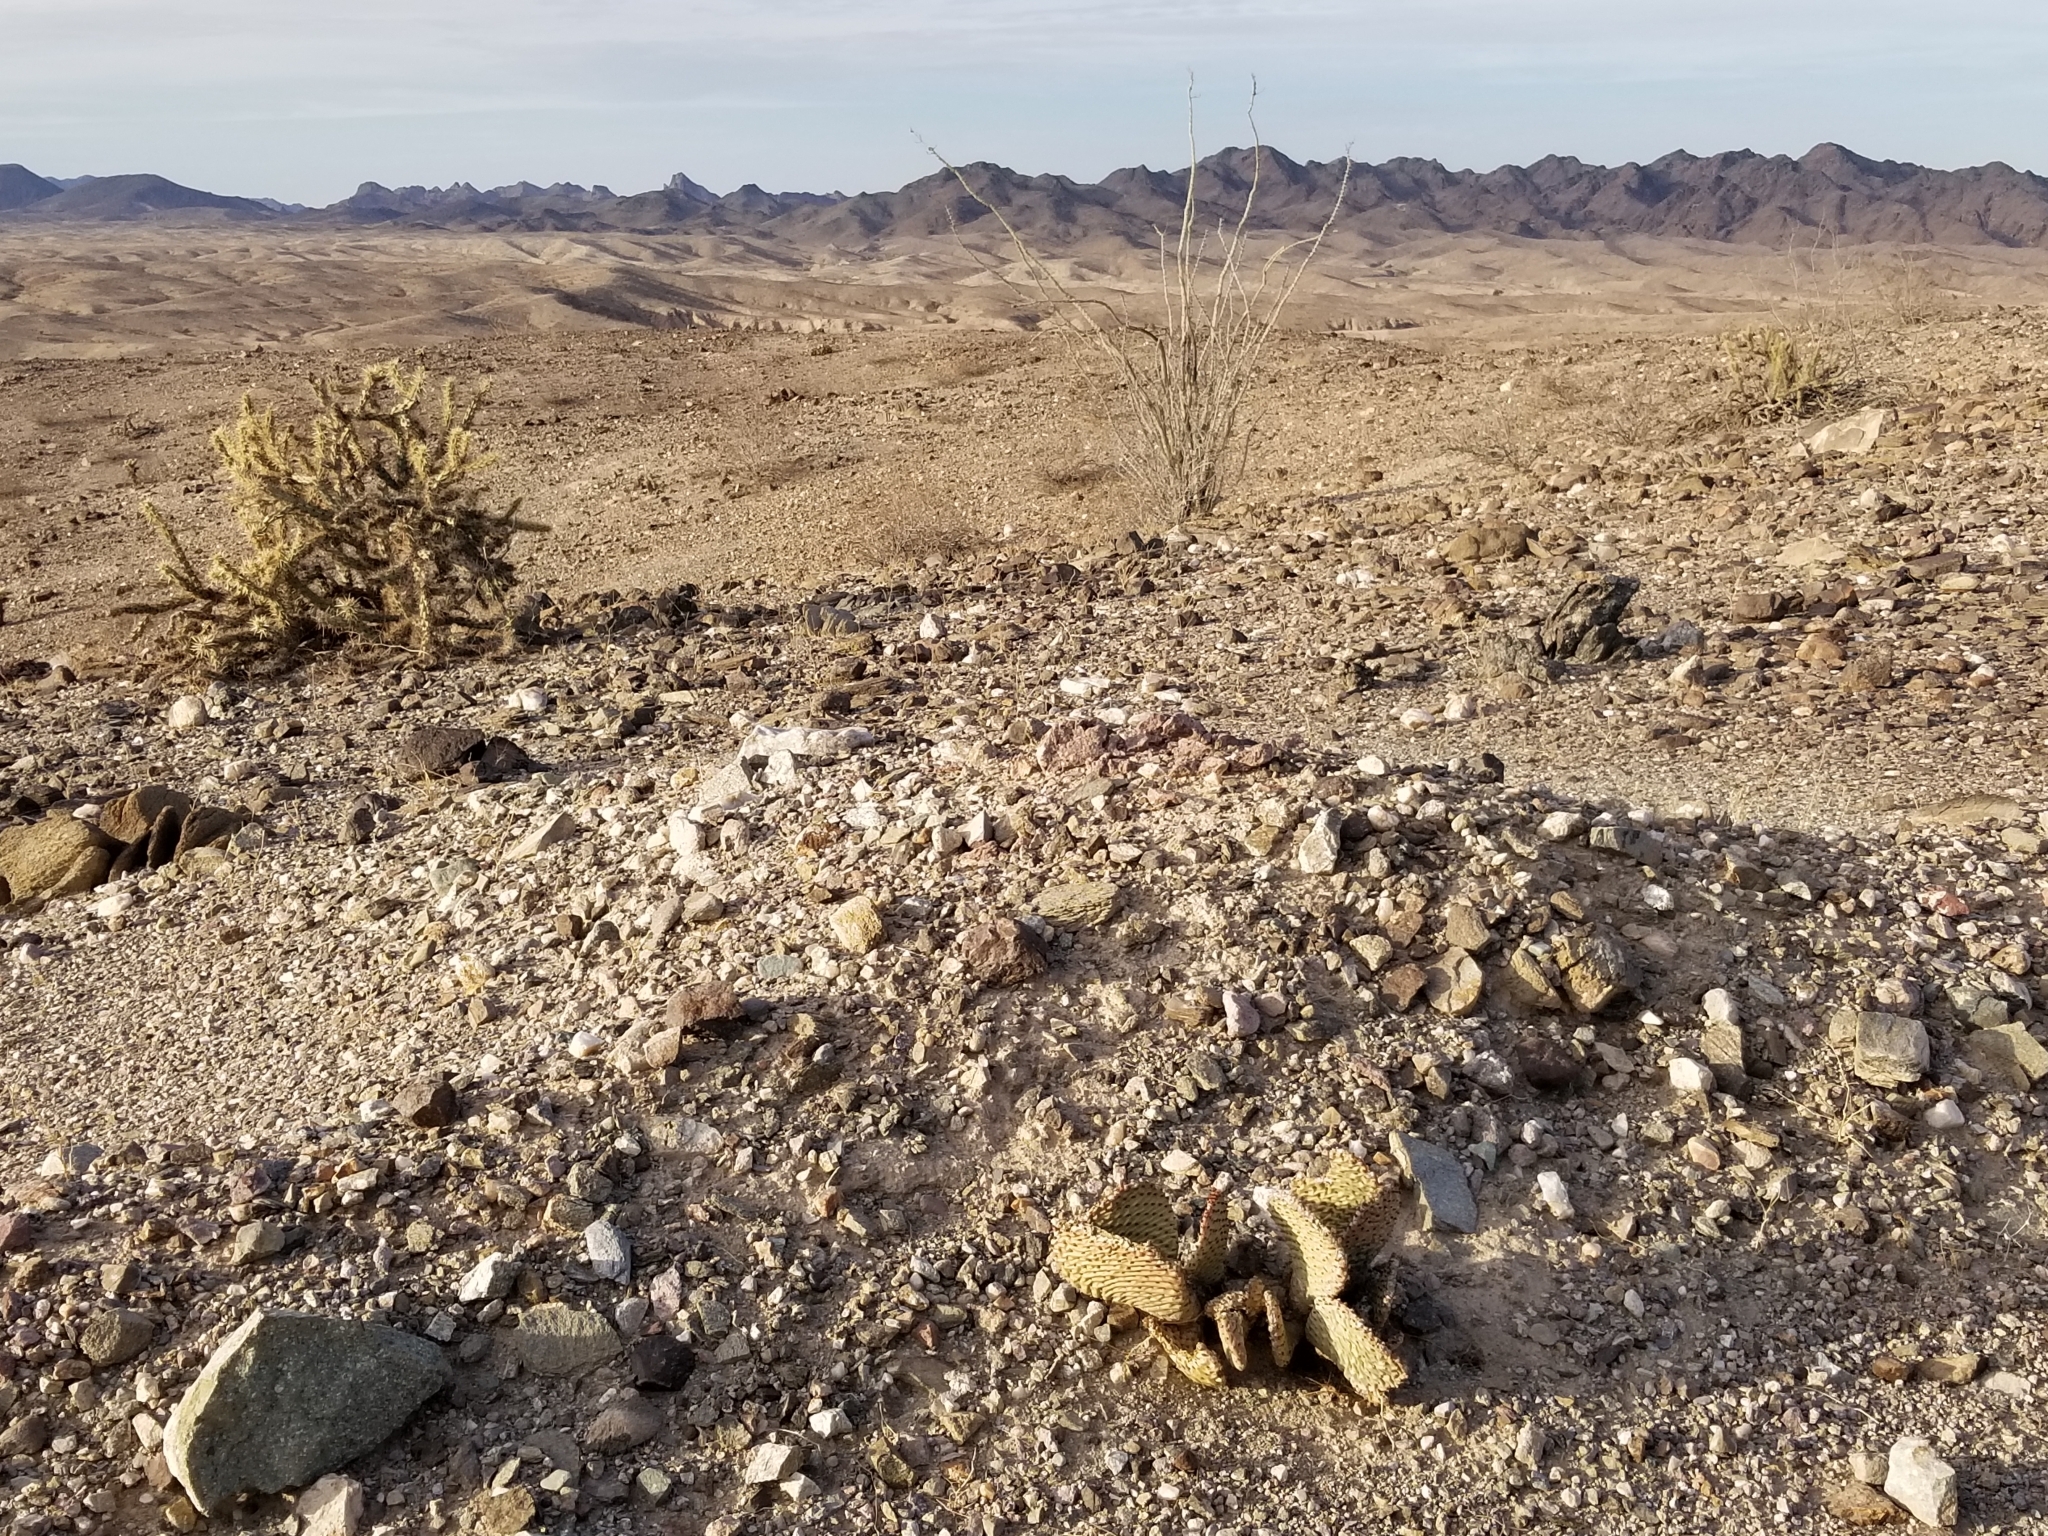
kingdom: Plantae
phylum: Tracheophyta
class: Magnoliopsida
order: Caryophyllales
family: Cactaceae
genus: Opuntia
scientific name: Opuntia basilaris
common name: Beavertail prickly-pear
